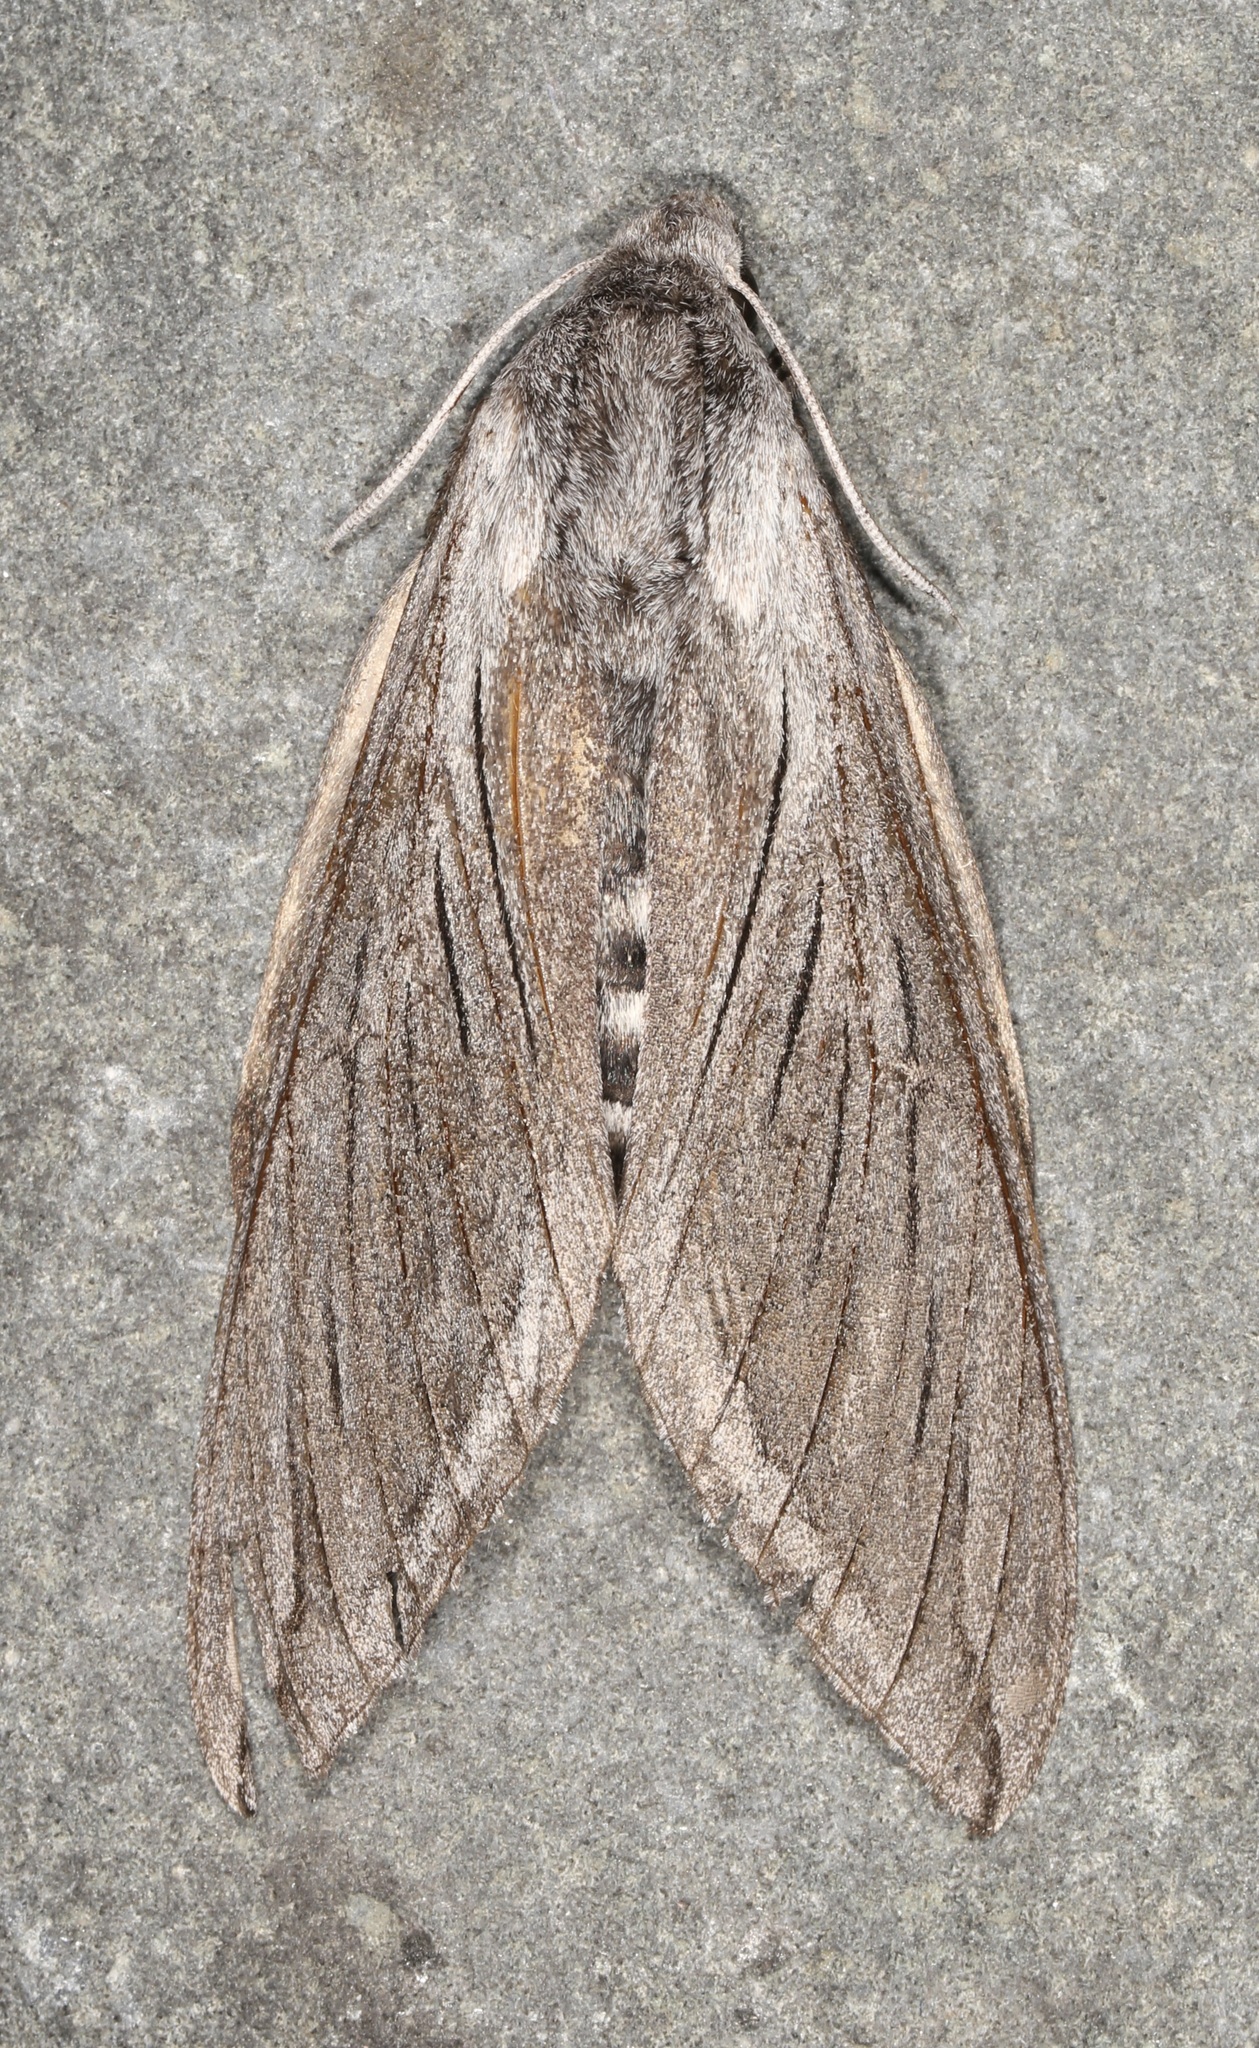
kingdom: Animalia
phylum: Arthropoda
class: Insecta
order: Lepidoptera
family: Sphingidae
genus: Sphinx
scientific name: Sphinx asellus
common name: Asella sphinx
